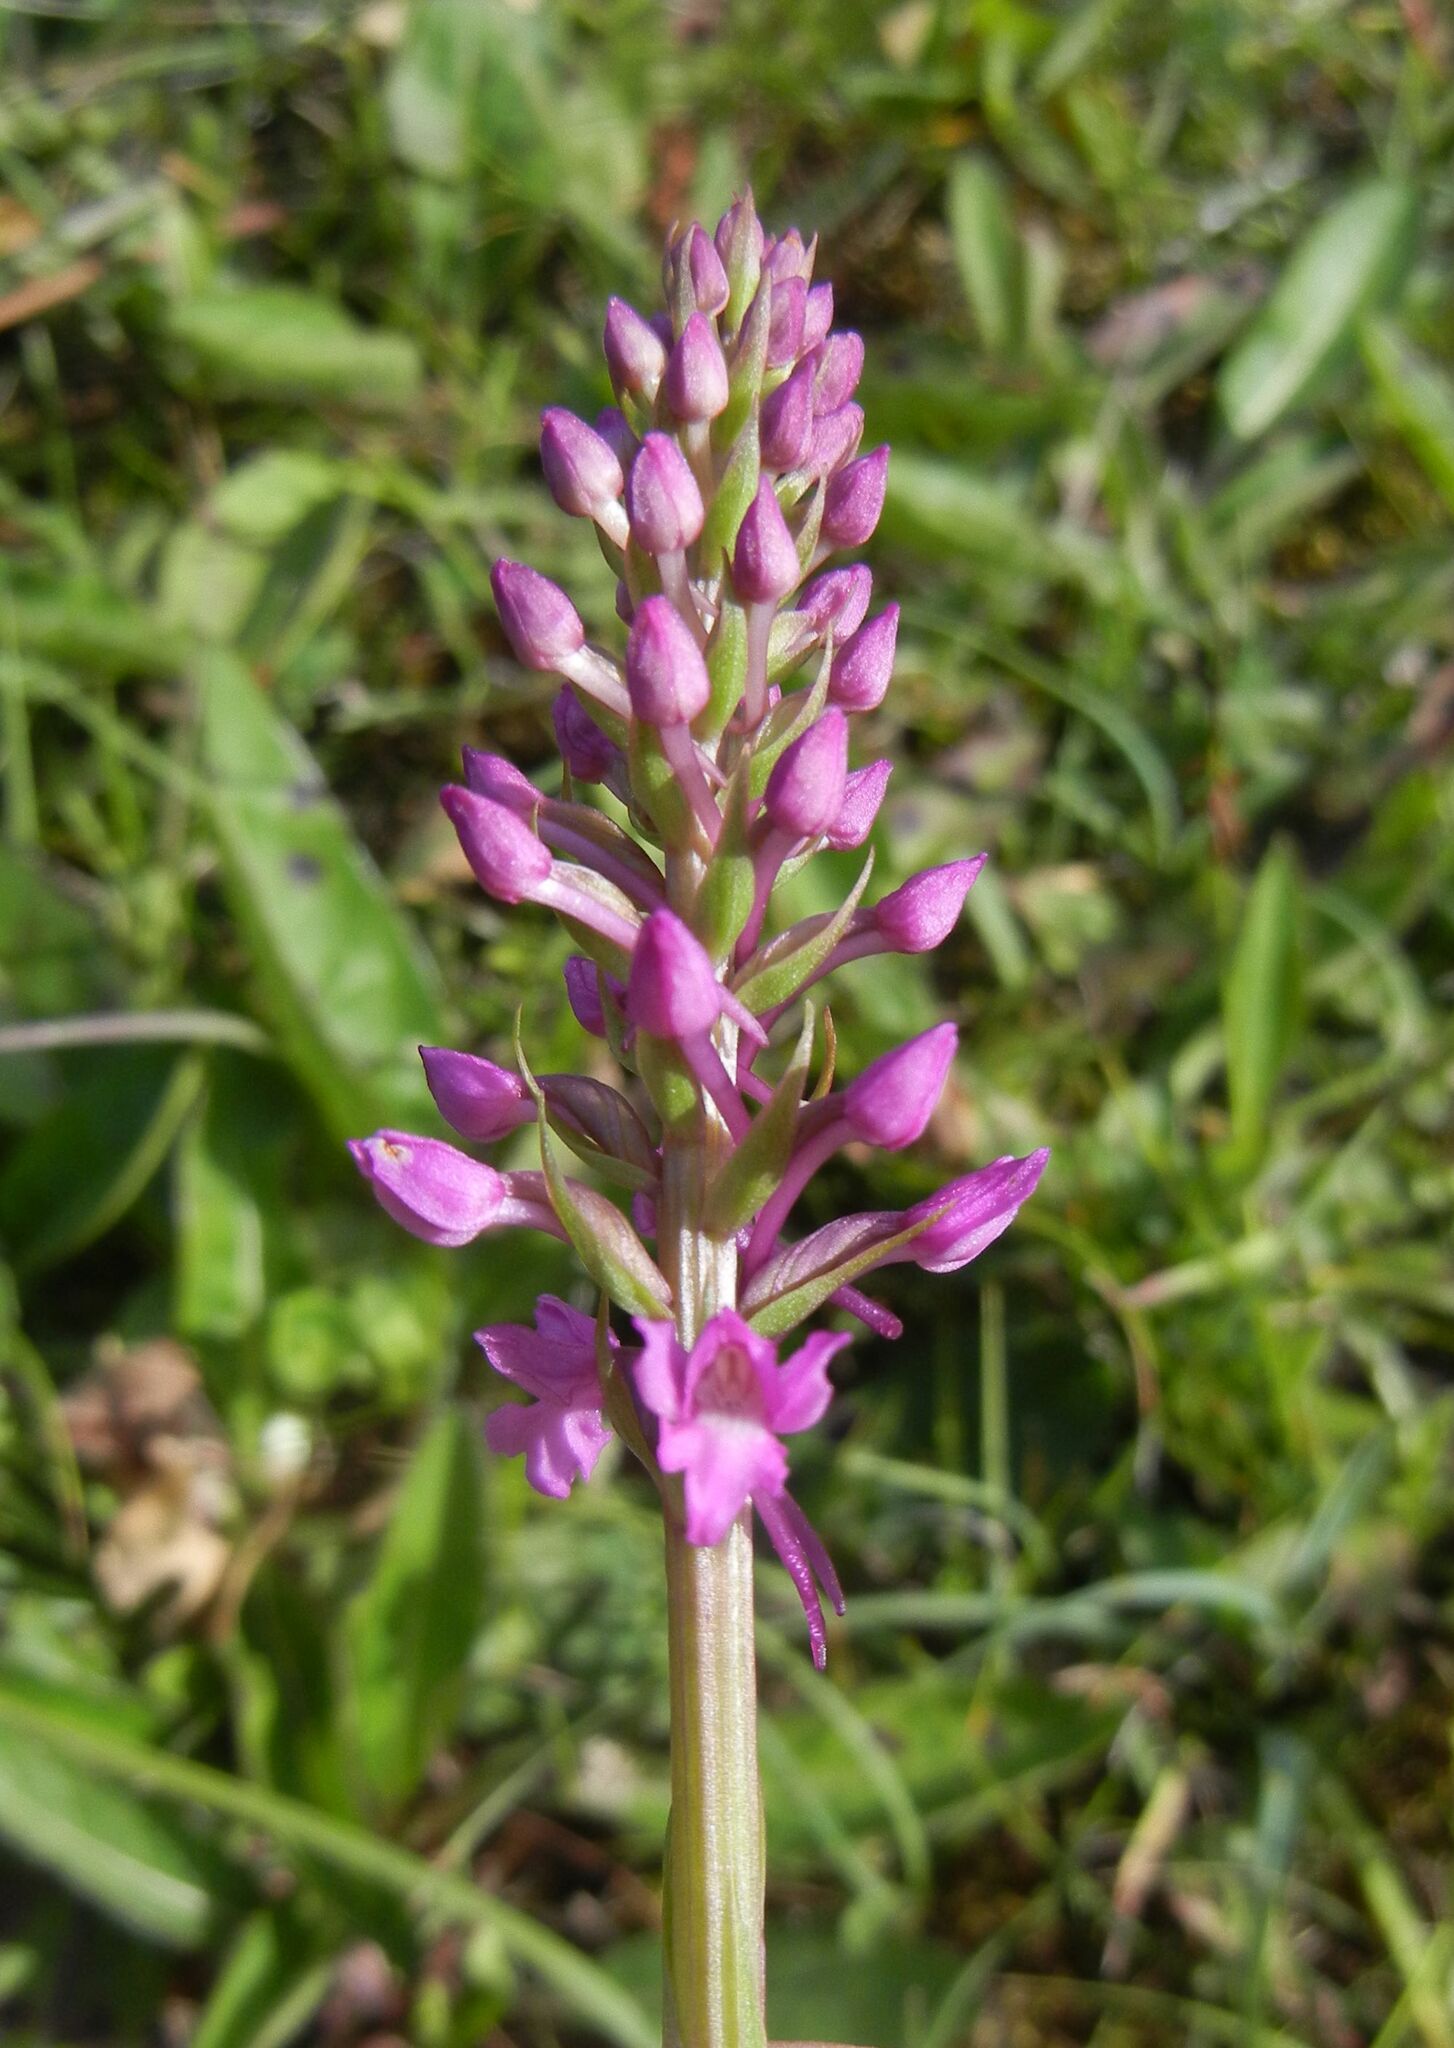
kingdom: Plantae
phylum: Tracheophyta
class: Liliopsida
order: Asparagales
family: Orchidaceae
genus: Gymnadenia
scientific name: Gymnadenia conopsea
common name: Fragrant orchid
